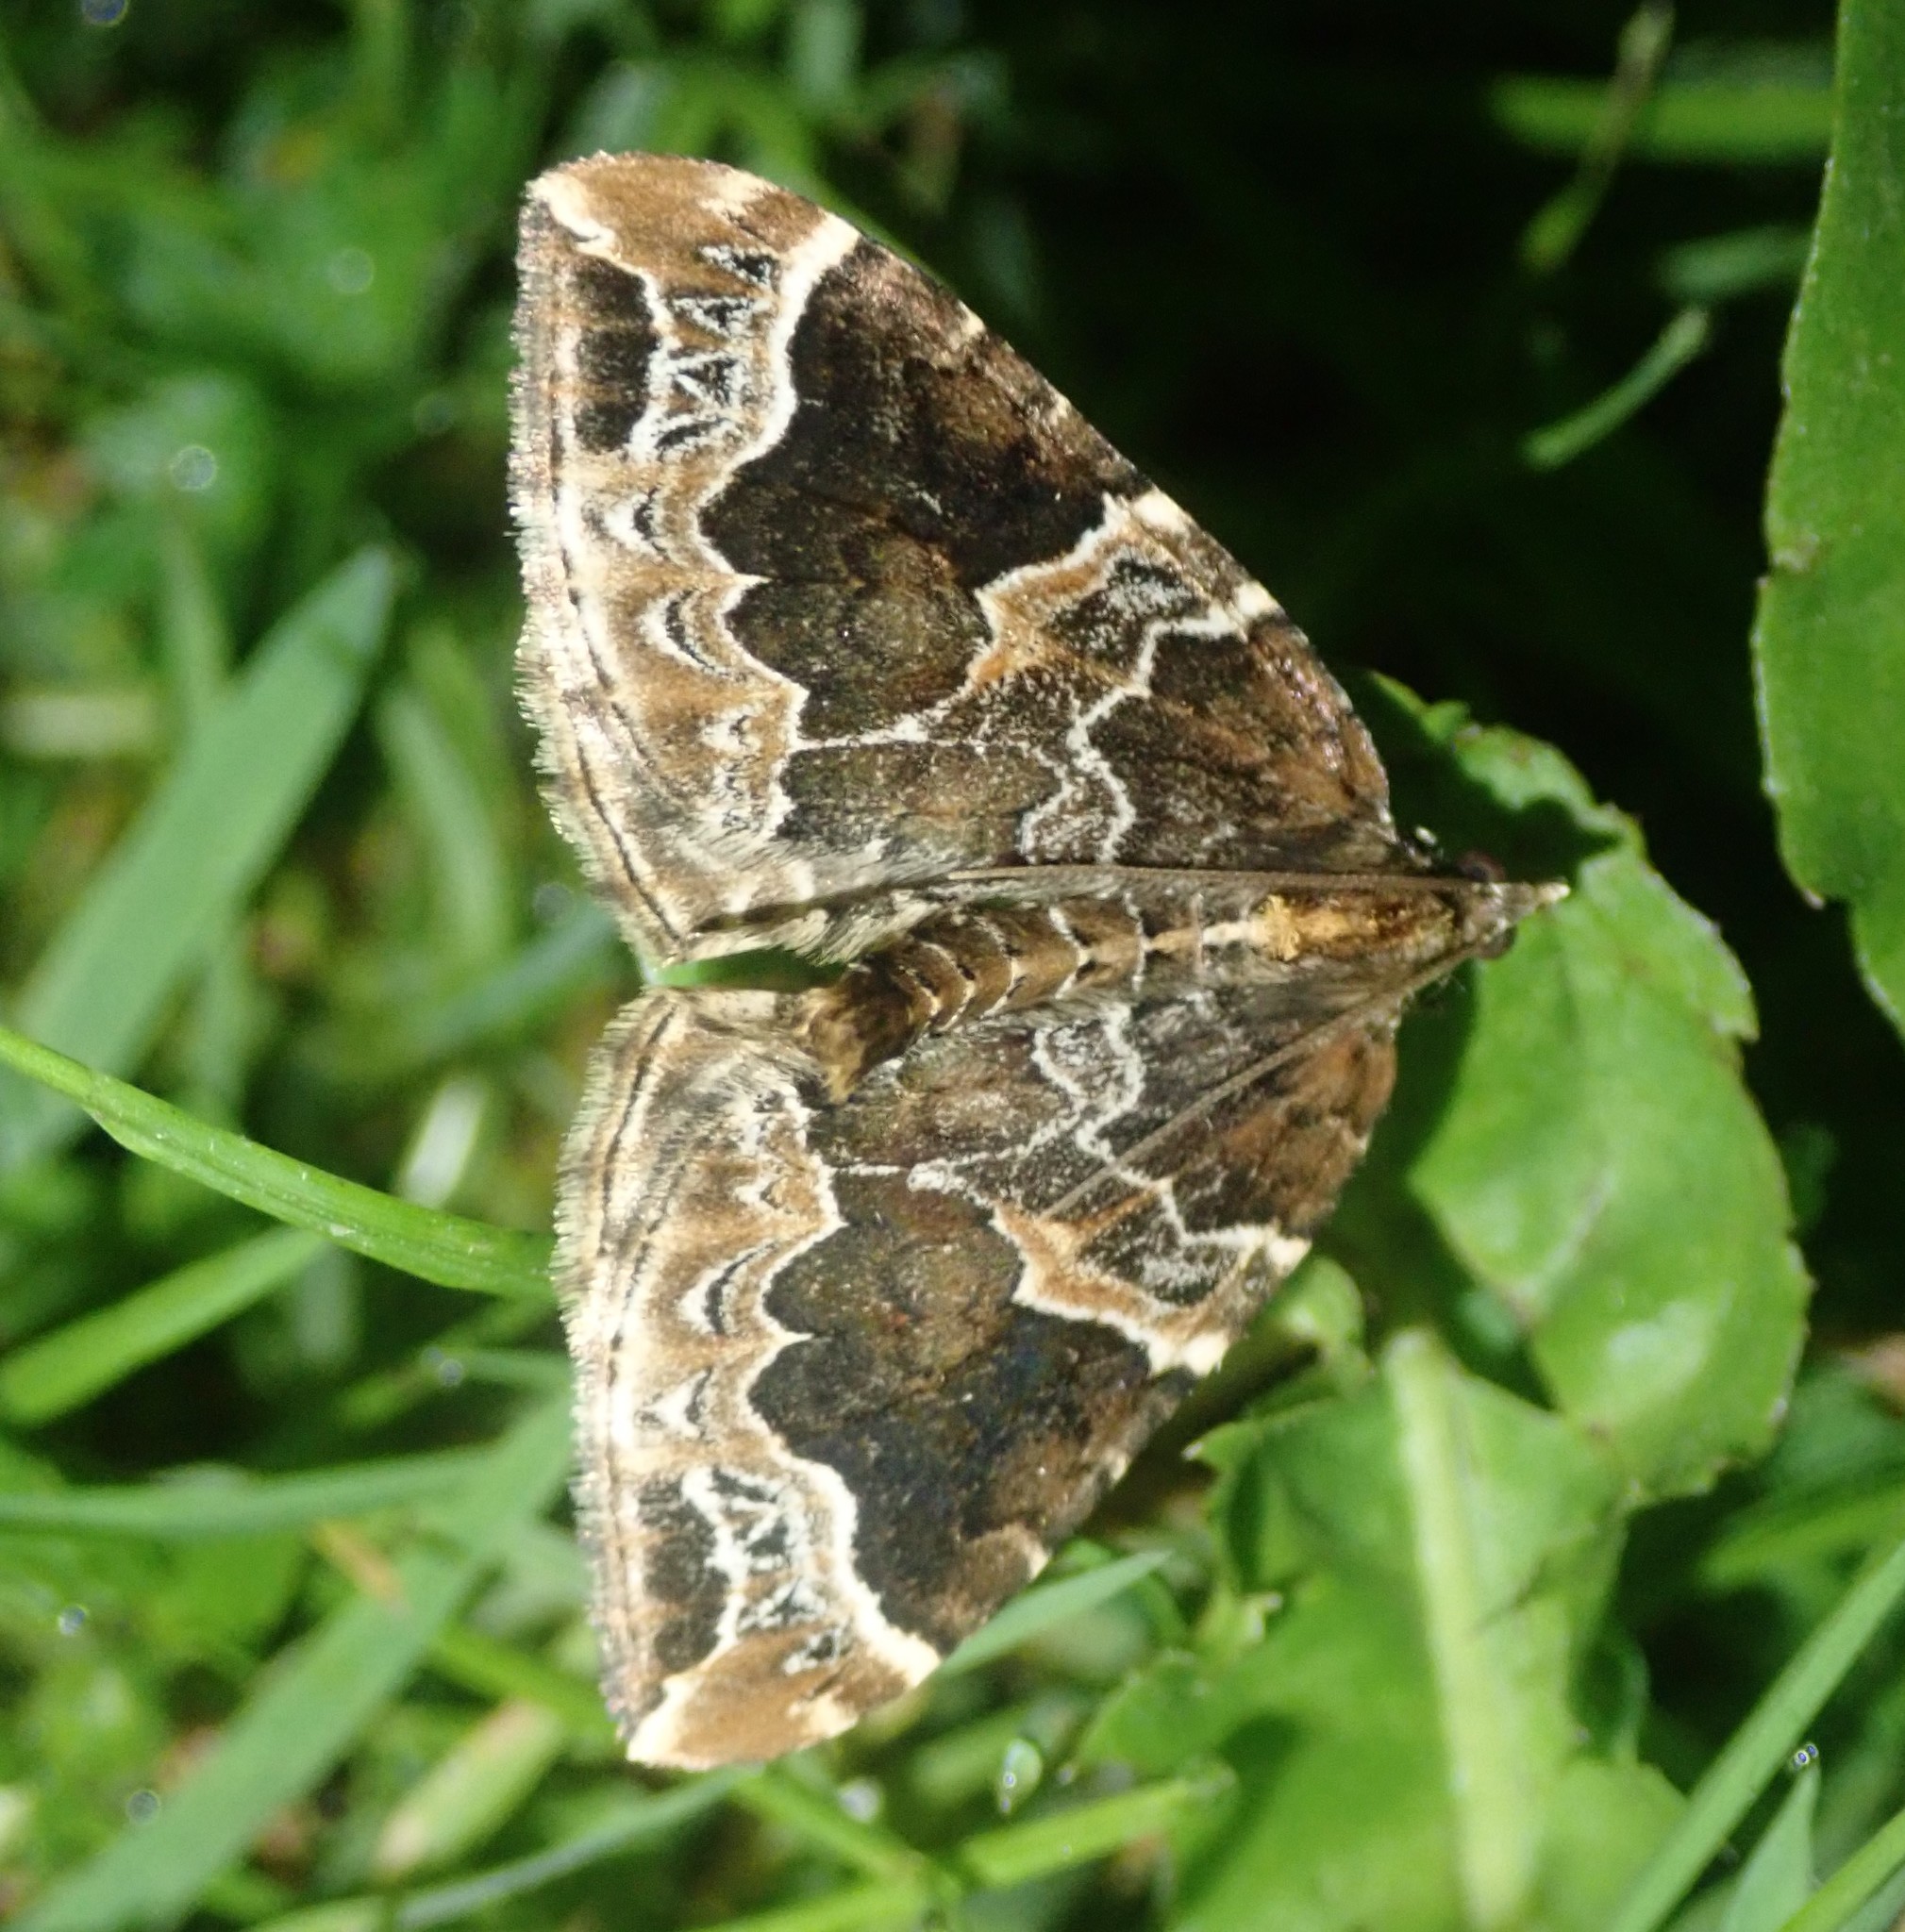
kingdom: Animalia
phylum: Arthropoda
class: Insecta
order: Lepidoptera
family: Geometridae
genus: Eulithis
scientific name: Eulithis prunata
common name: Phoenix
